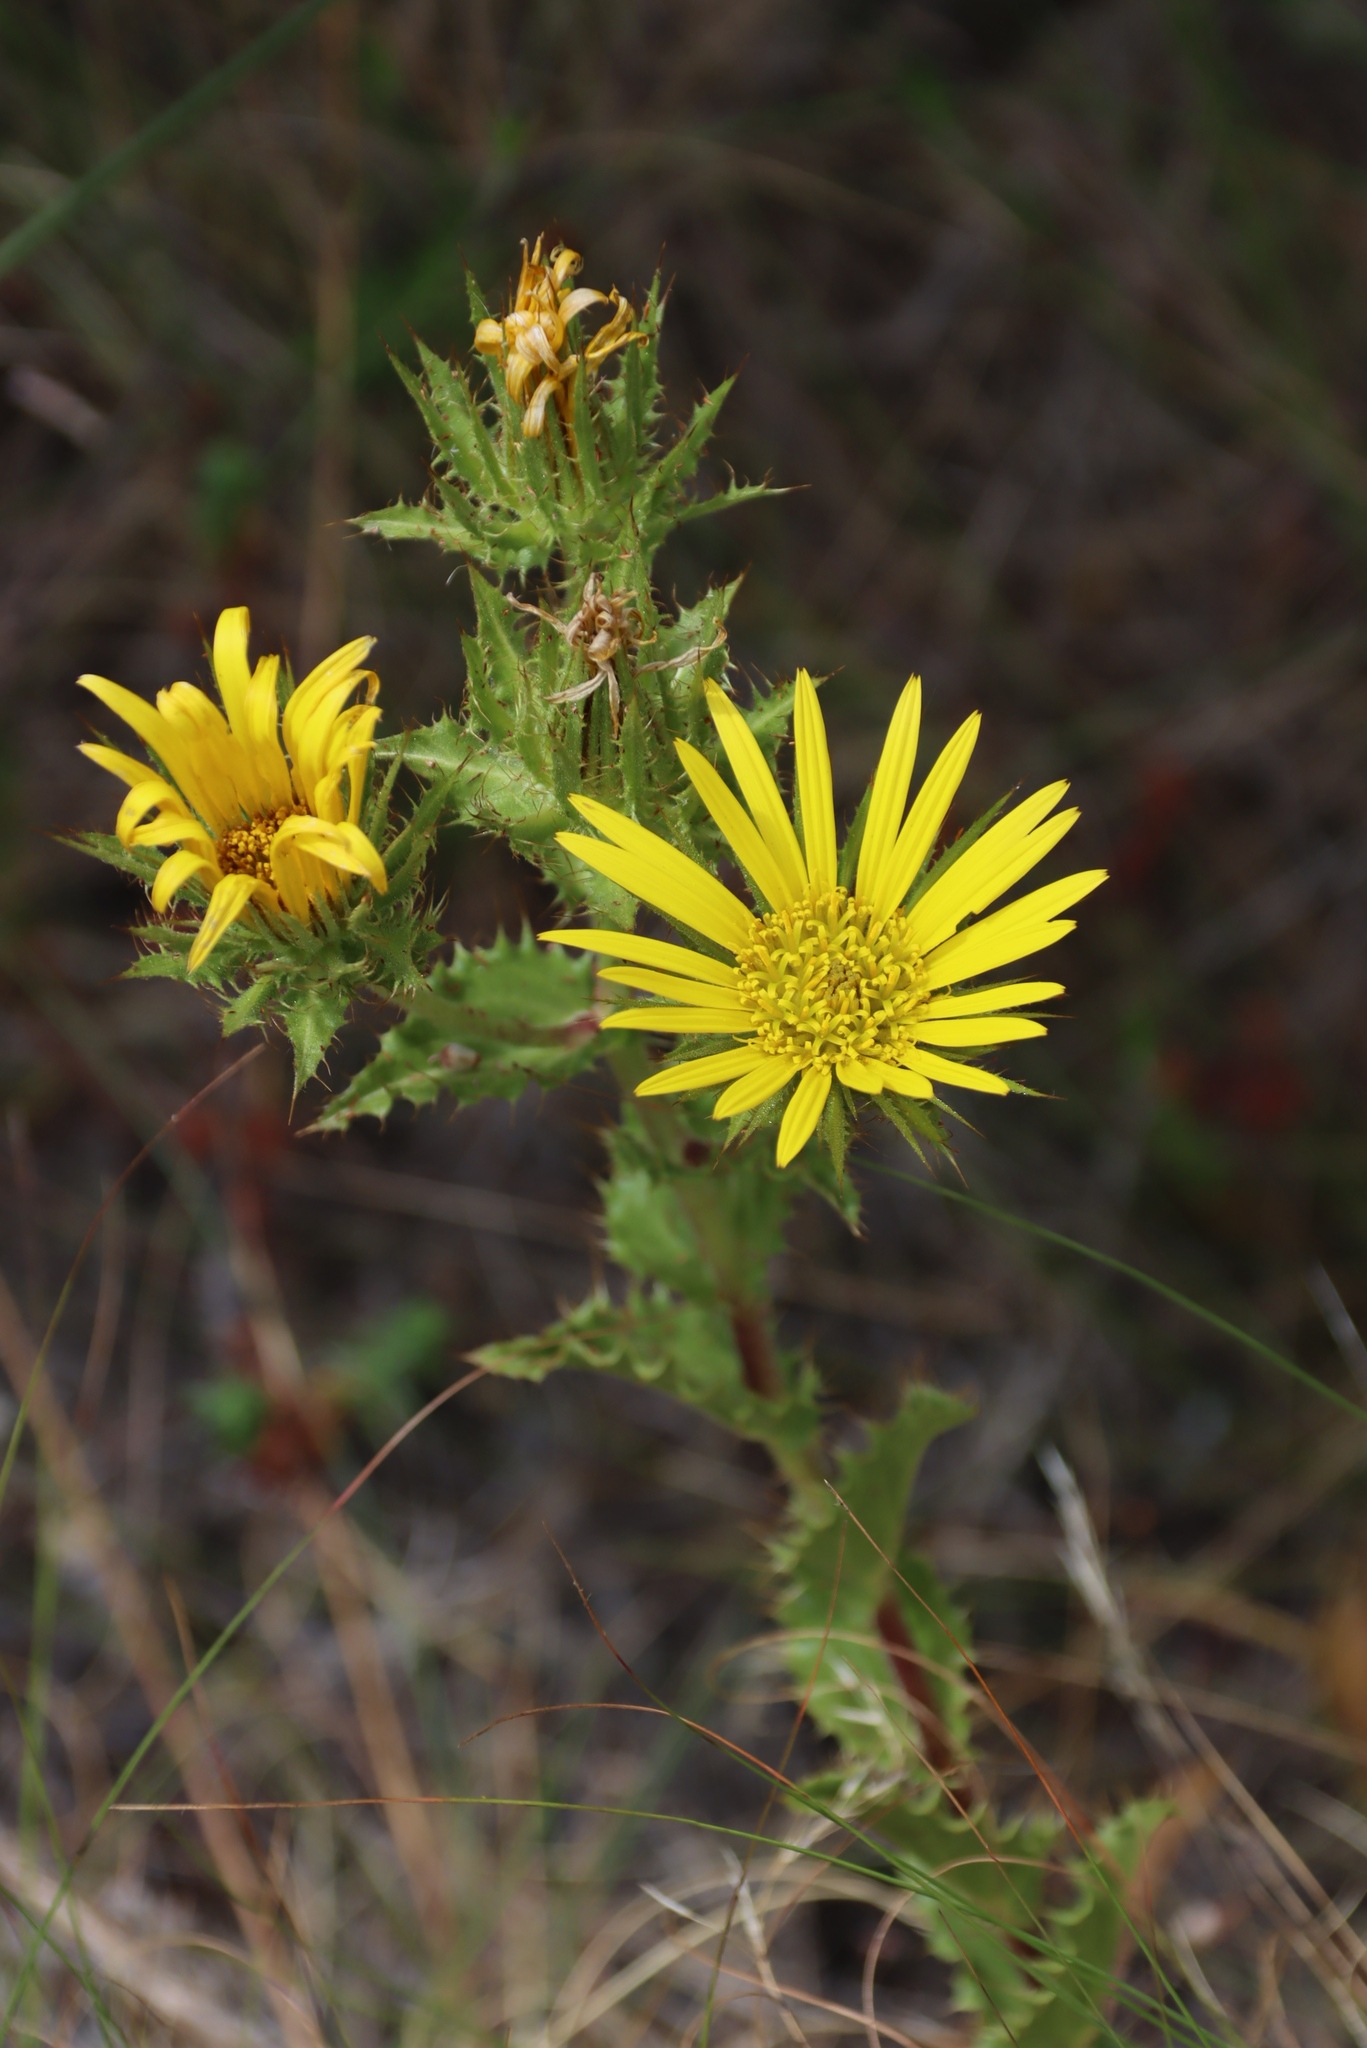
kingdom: Plantae
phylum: Tracheophyta
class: Magnoliopsida
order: Asterales
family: Asteraceae
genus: Berkheya
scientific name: Berkheya carlinoides
